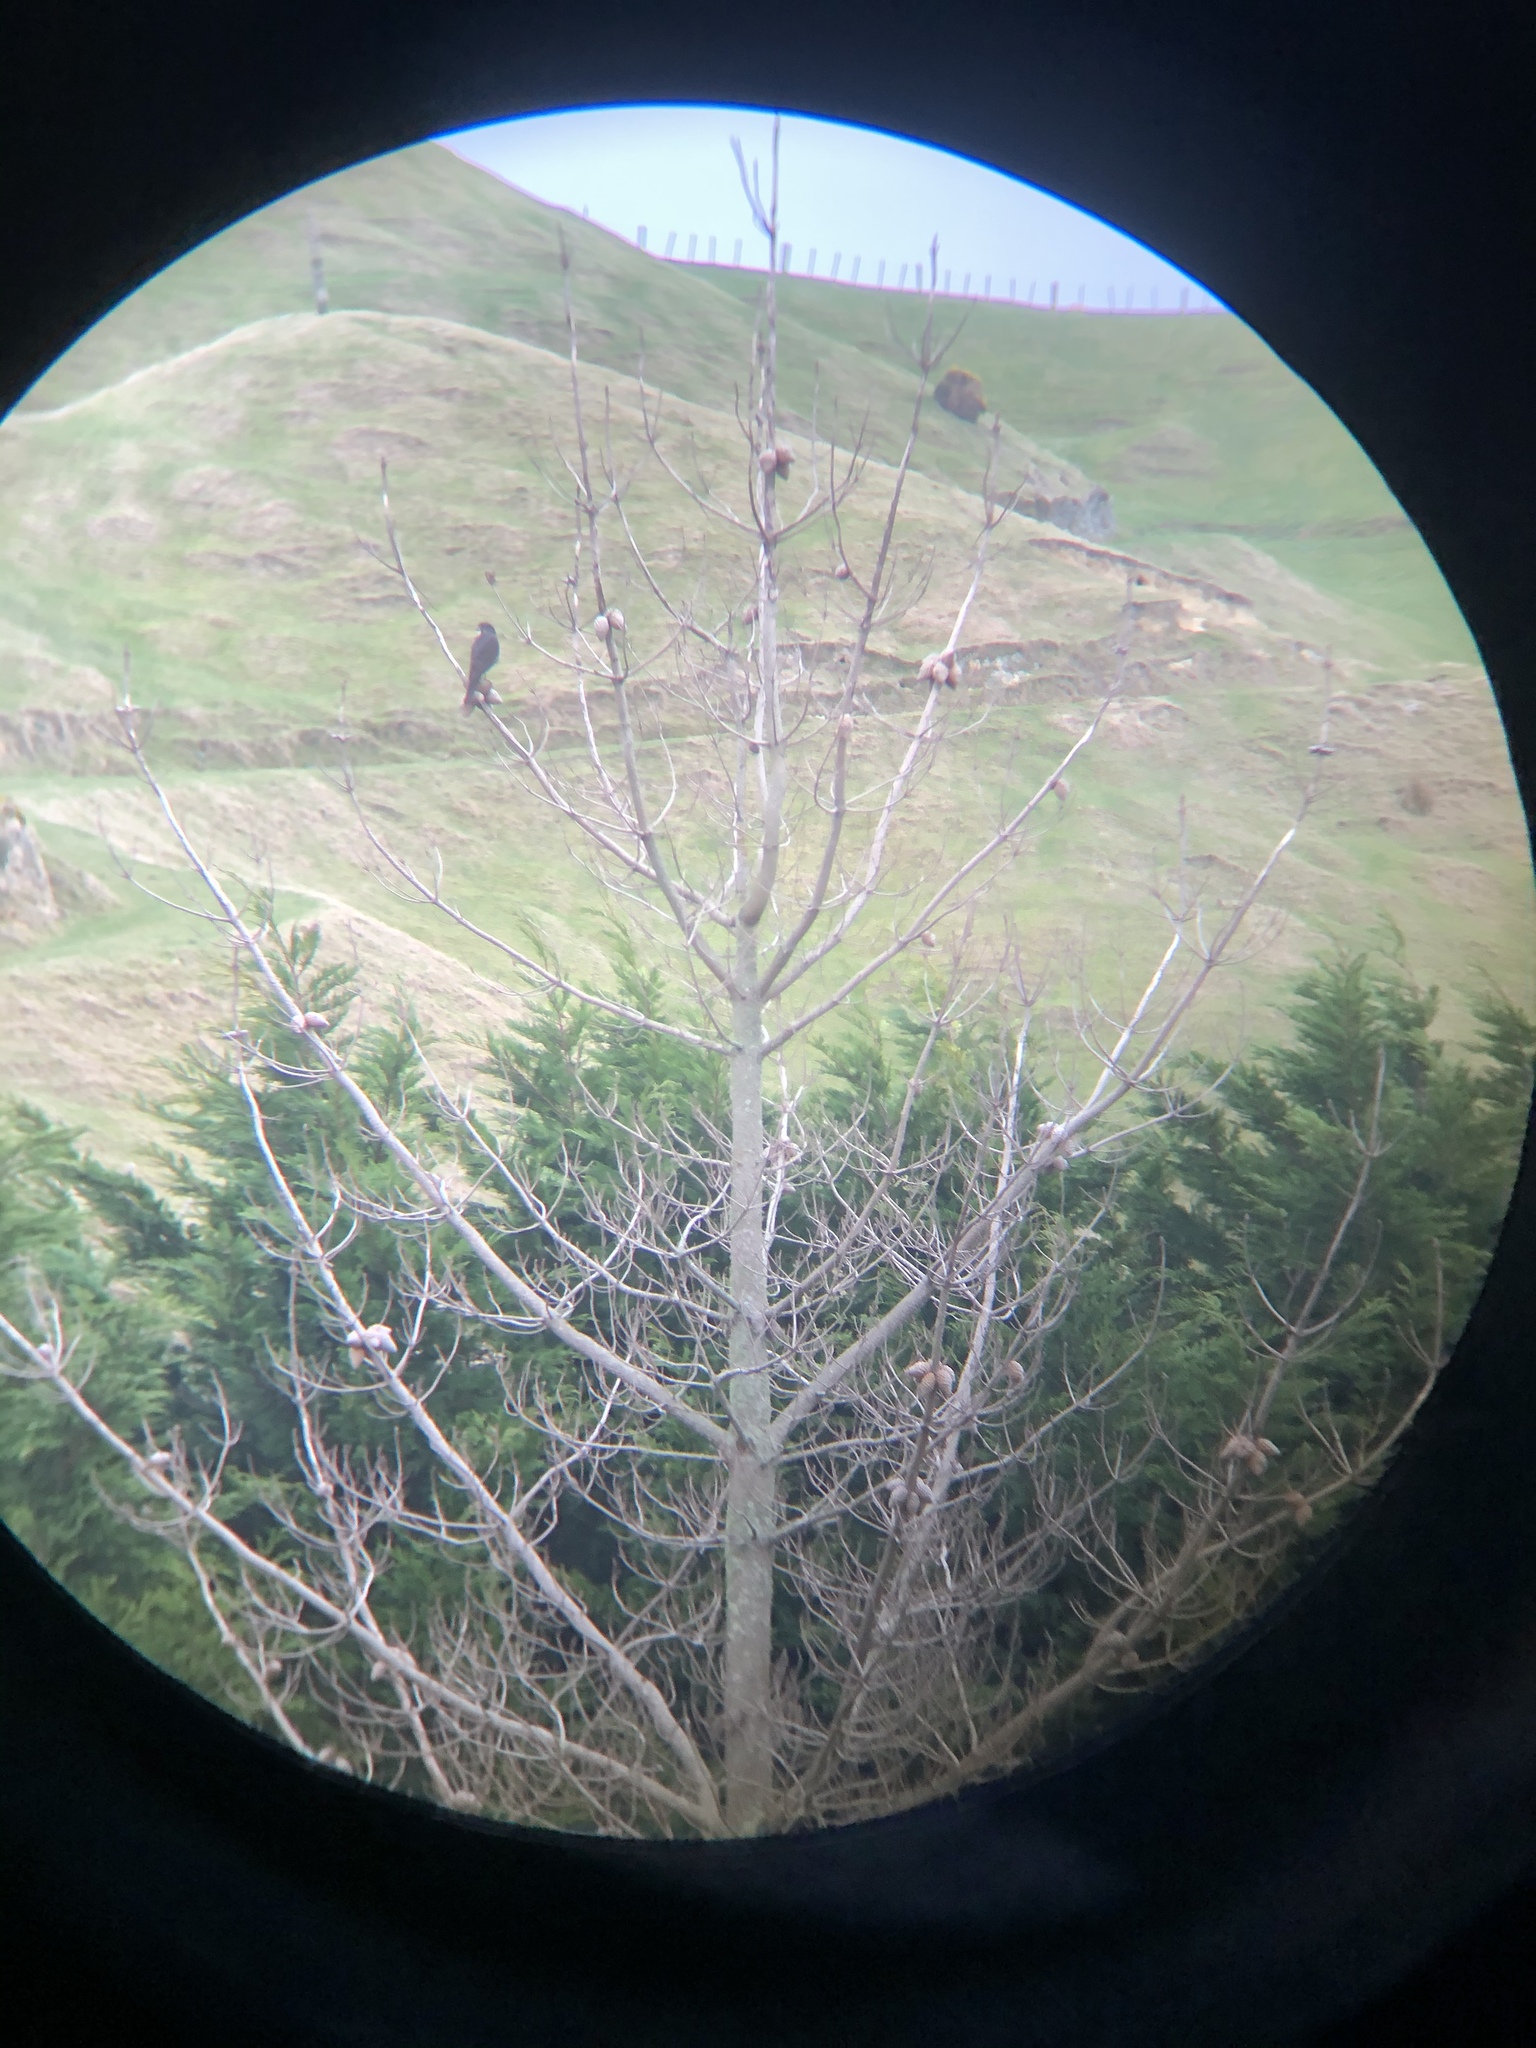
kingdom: Animalia
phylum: Chordata
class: Aves
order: Falconiformes
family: Falconidae
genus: Falco
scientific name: Falco novaeseelandiae
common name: New zealand falcon
